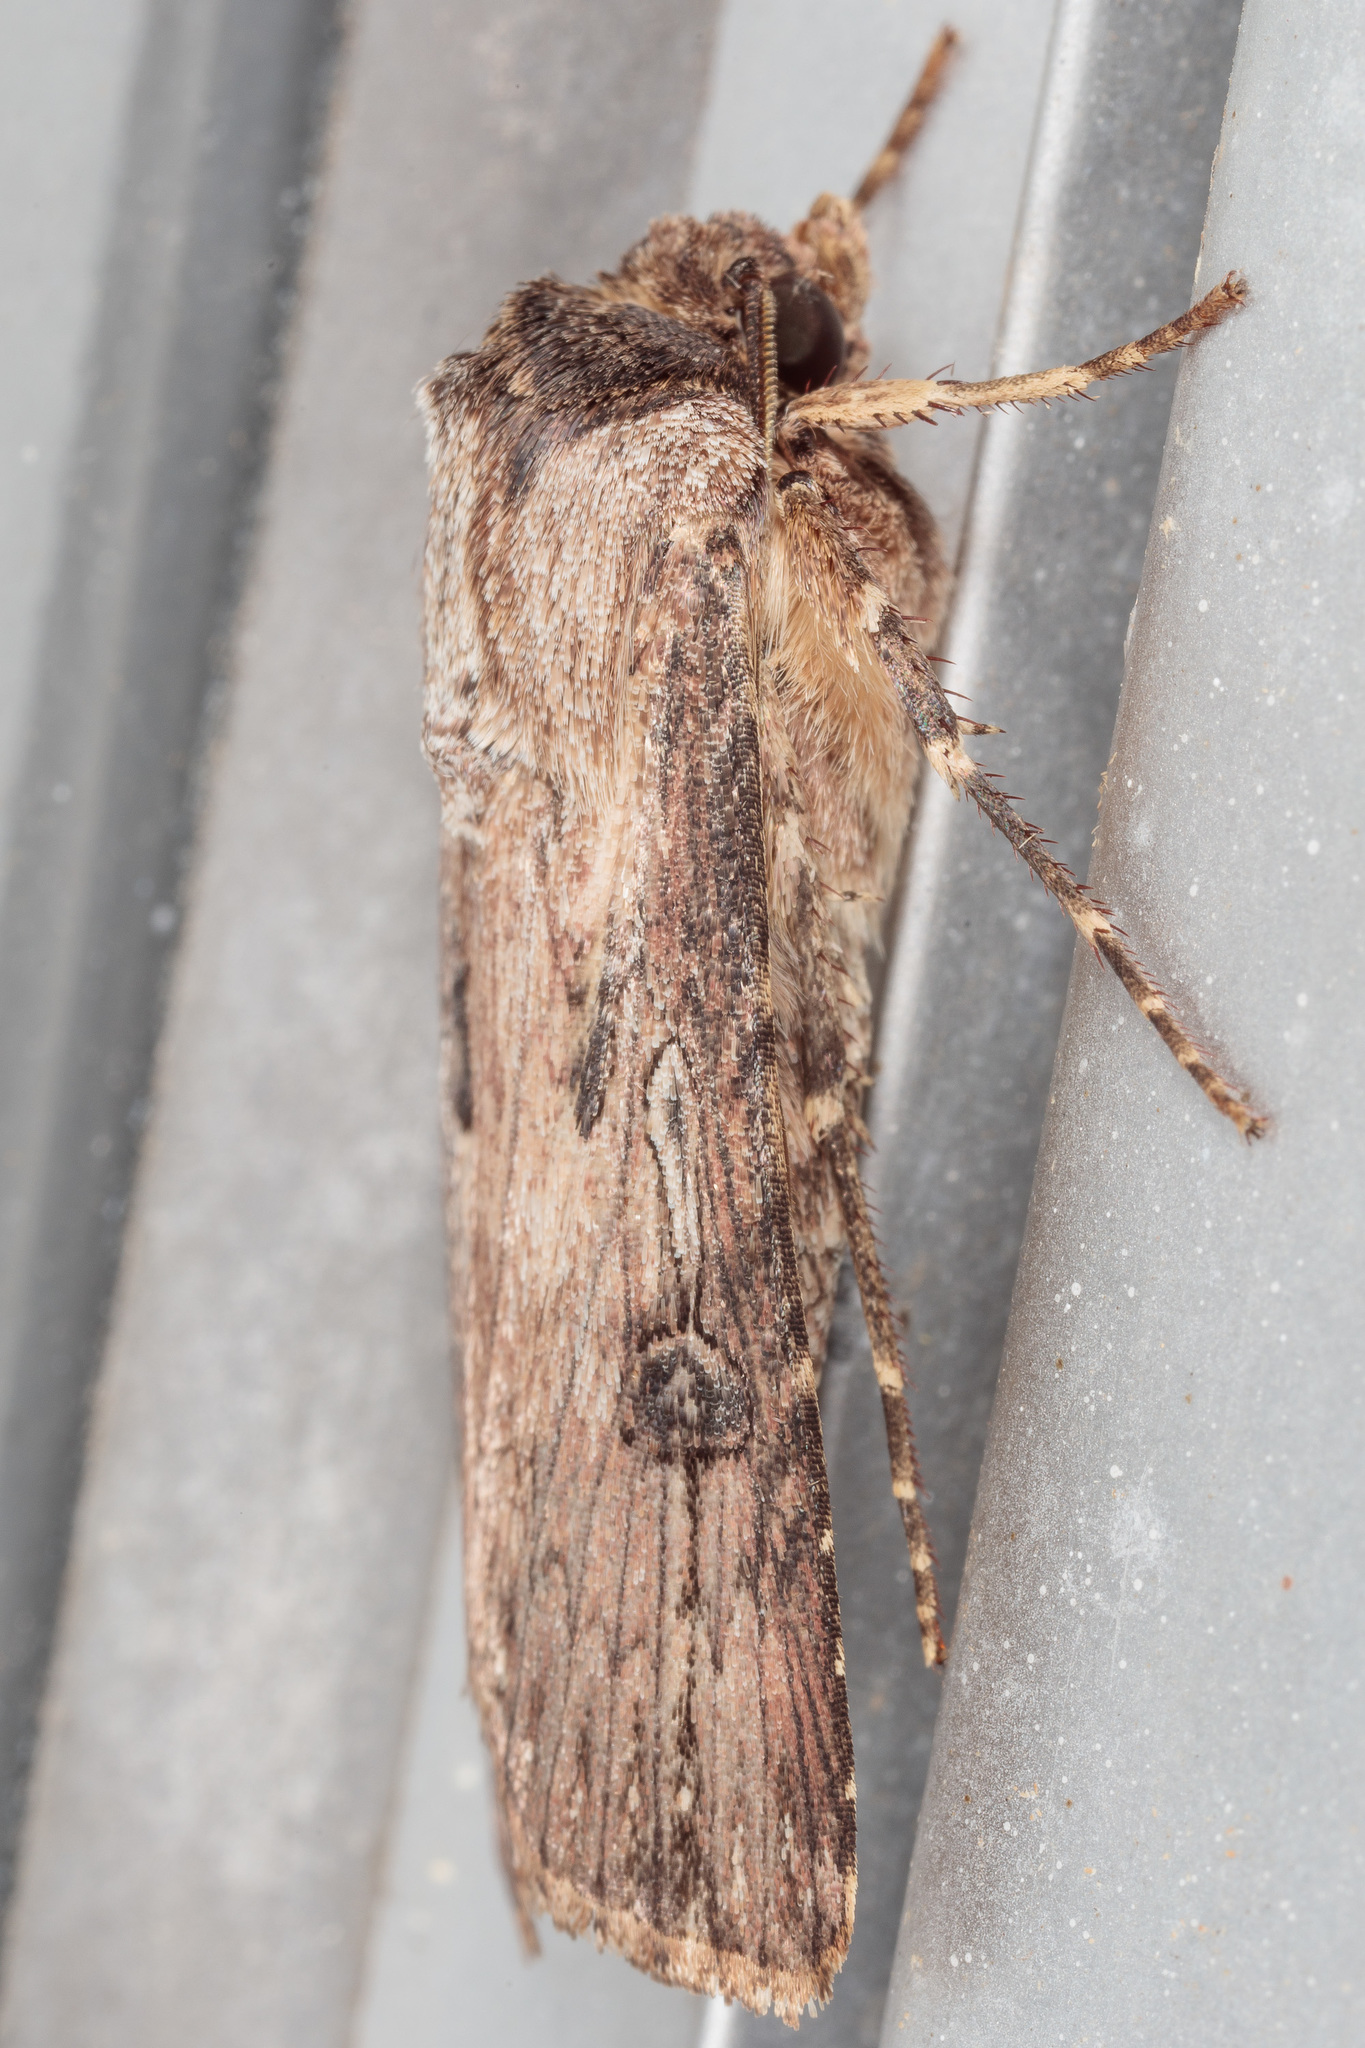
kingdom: Animalia
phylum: Arthropoda
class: Insecta
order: Lepidoptera
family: Noctuidae
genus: Agrotis
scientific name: Agrotis malefida
